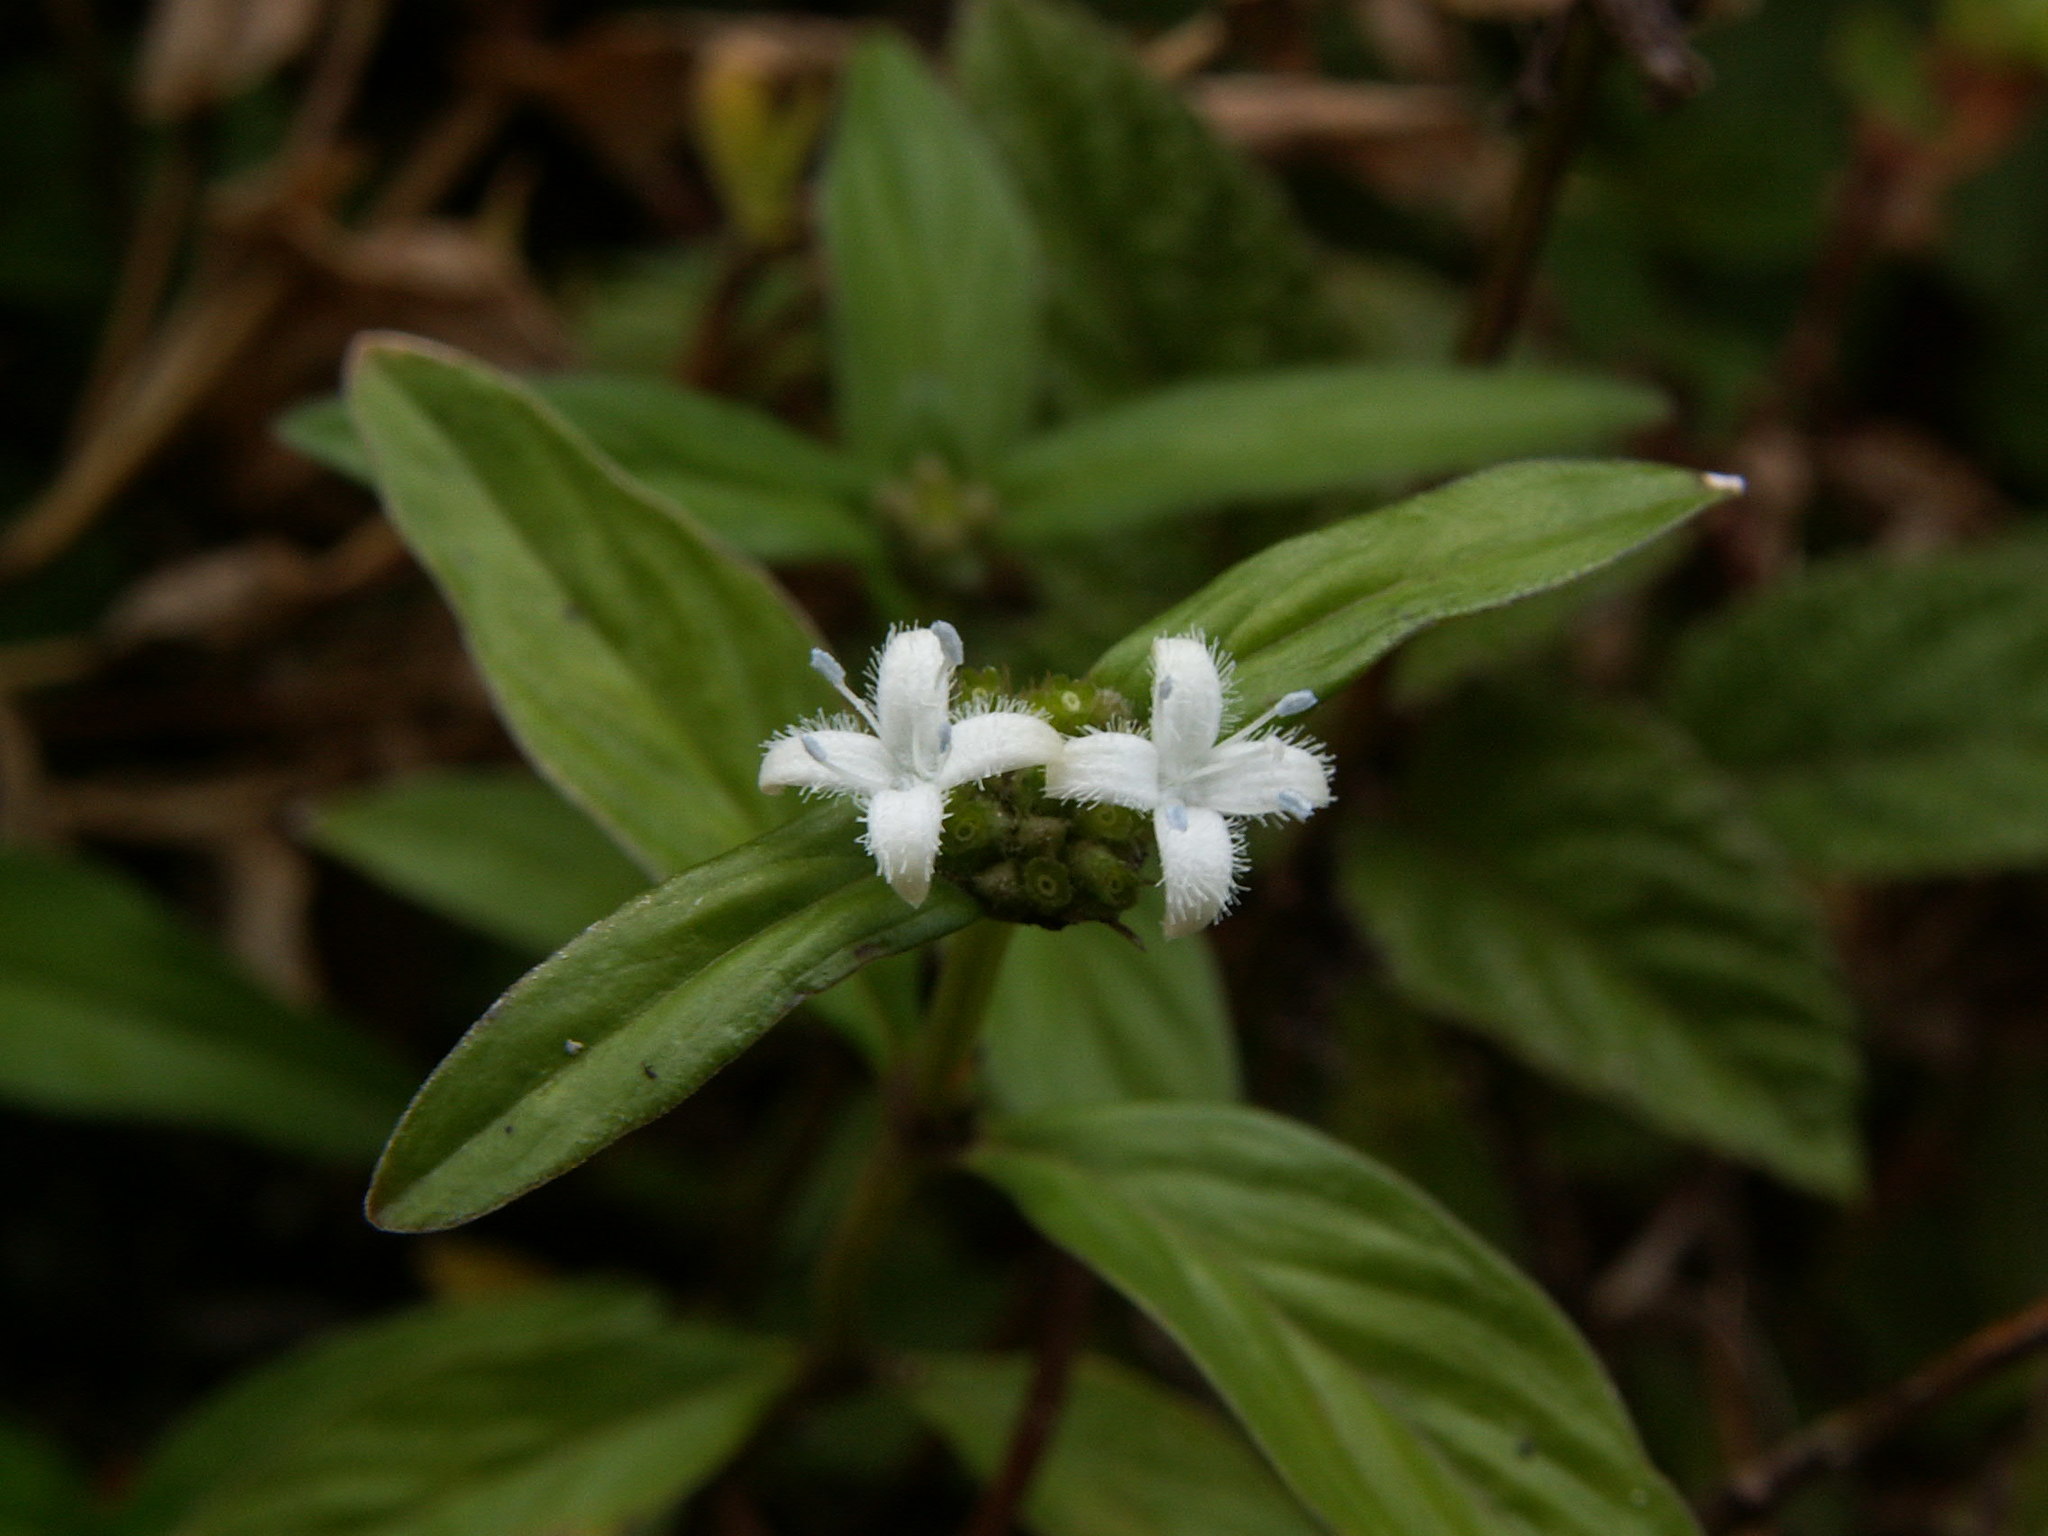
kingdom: Plantae
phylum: Tracheophyta
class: Magnoliopsida
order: Gentianales
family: Rubiaceae
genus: Spermacoce
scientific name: Spermacoce remota
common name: Woodland false buttonweed
